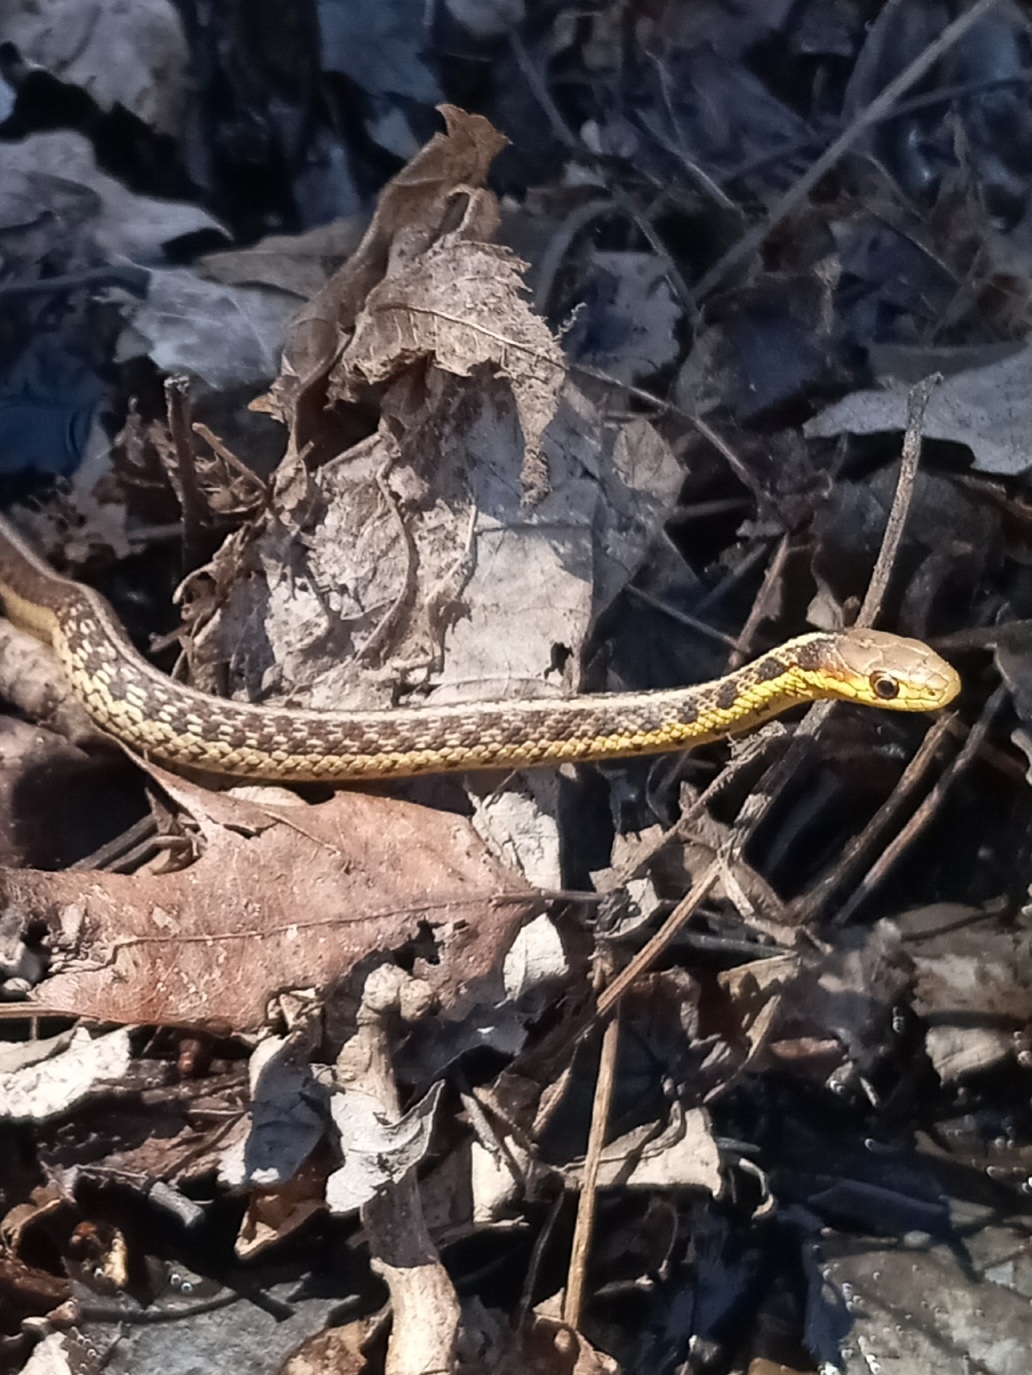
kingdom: Animalia
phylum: Chordata
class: Squamata
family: Colubridae
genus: Thamnophis
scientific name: Thamnophis sirtalis
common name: Common garter snake
